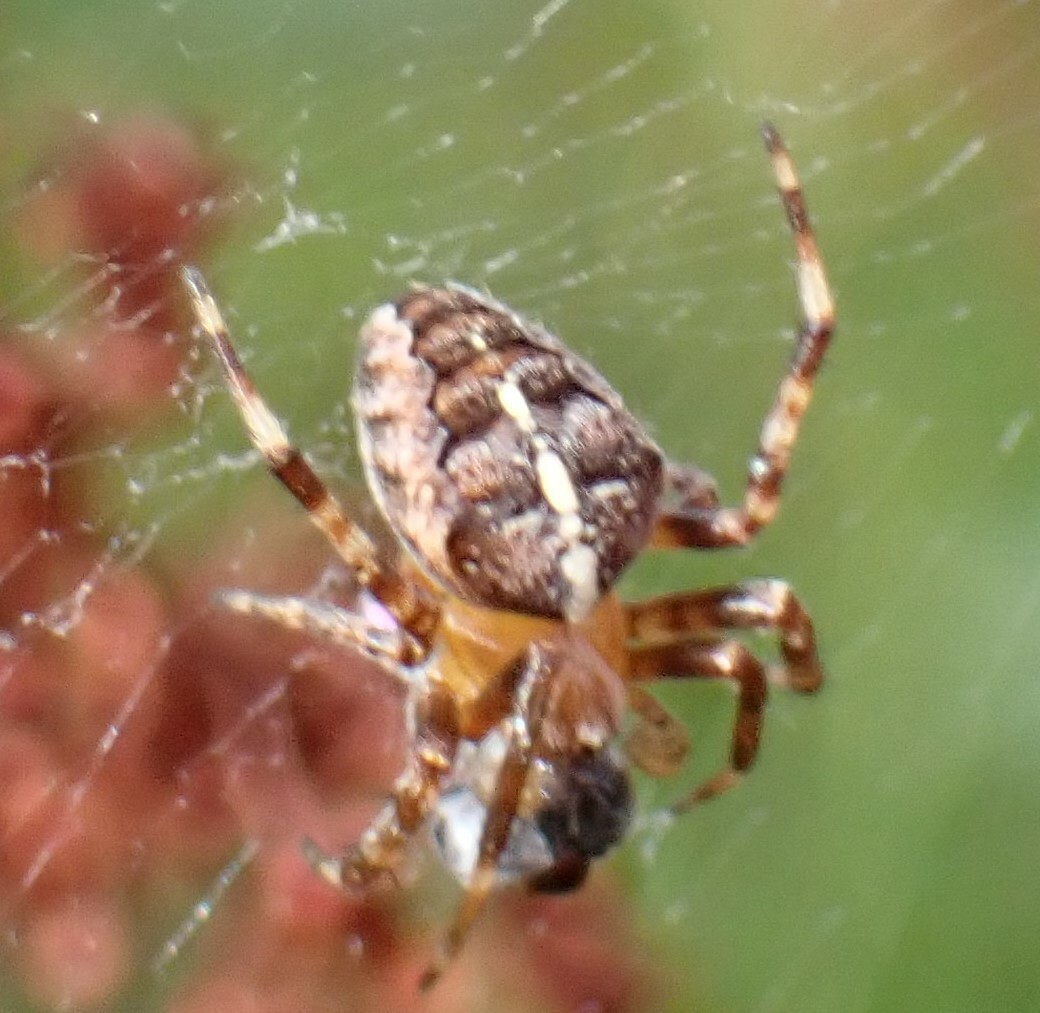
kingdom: Animalia
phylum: Arthropoda
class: Arachnida
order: Araneae
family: Araneidae
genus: Araneus
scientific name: Araneus diadematus
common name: Cross orbweaver
